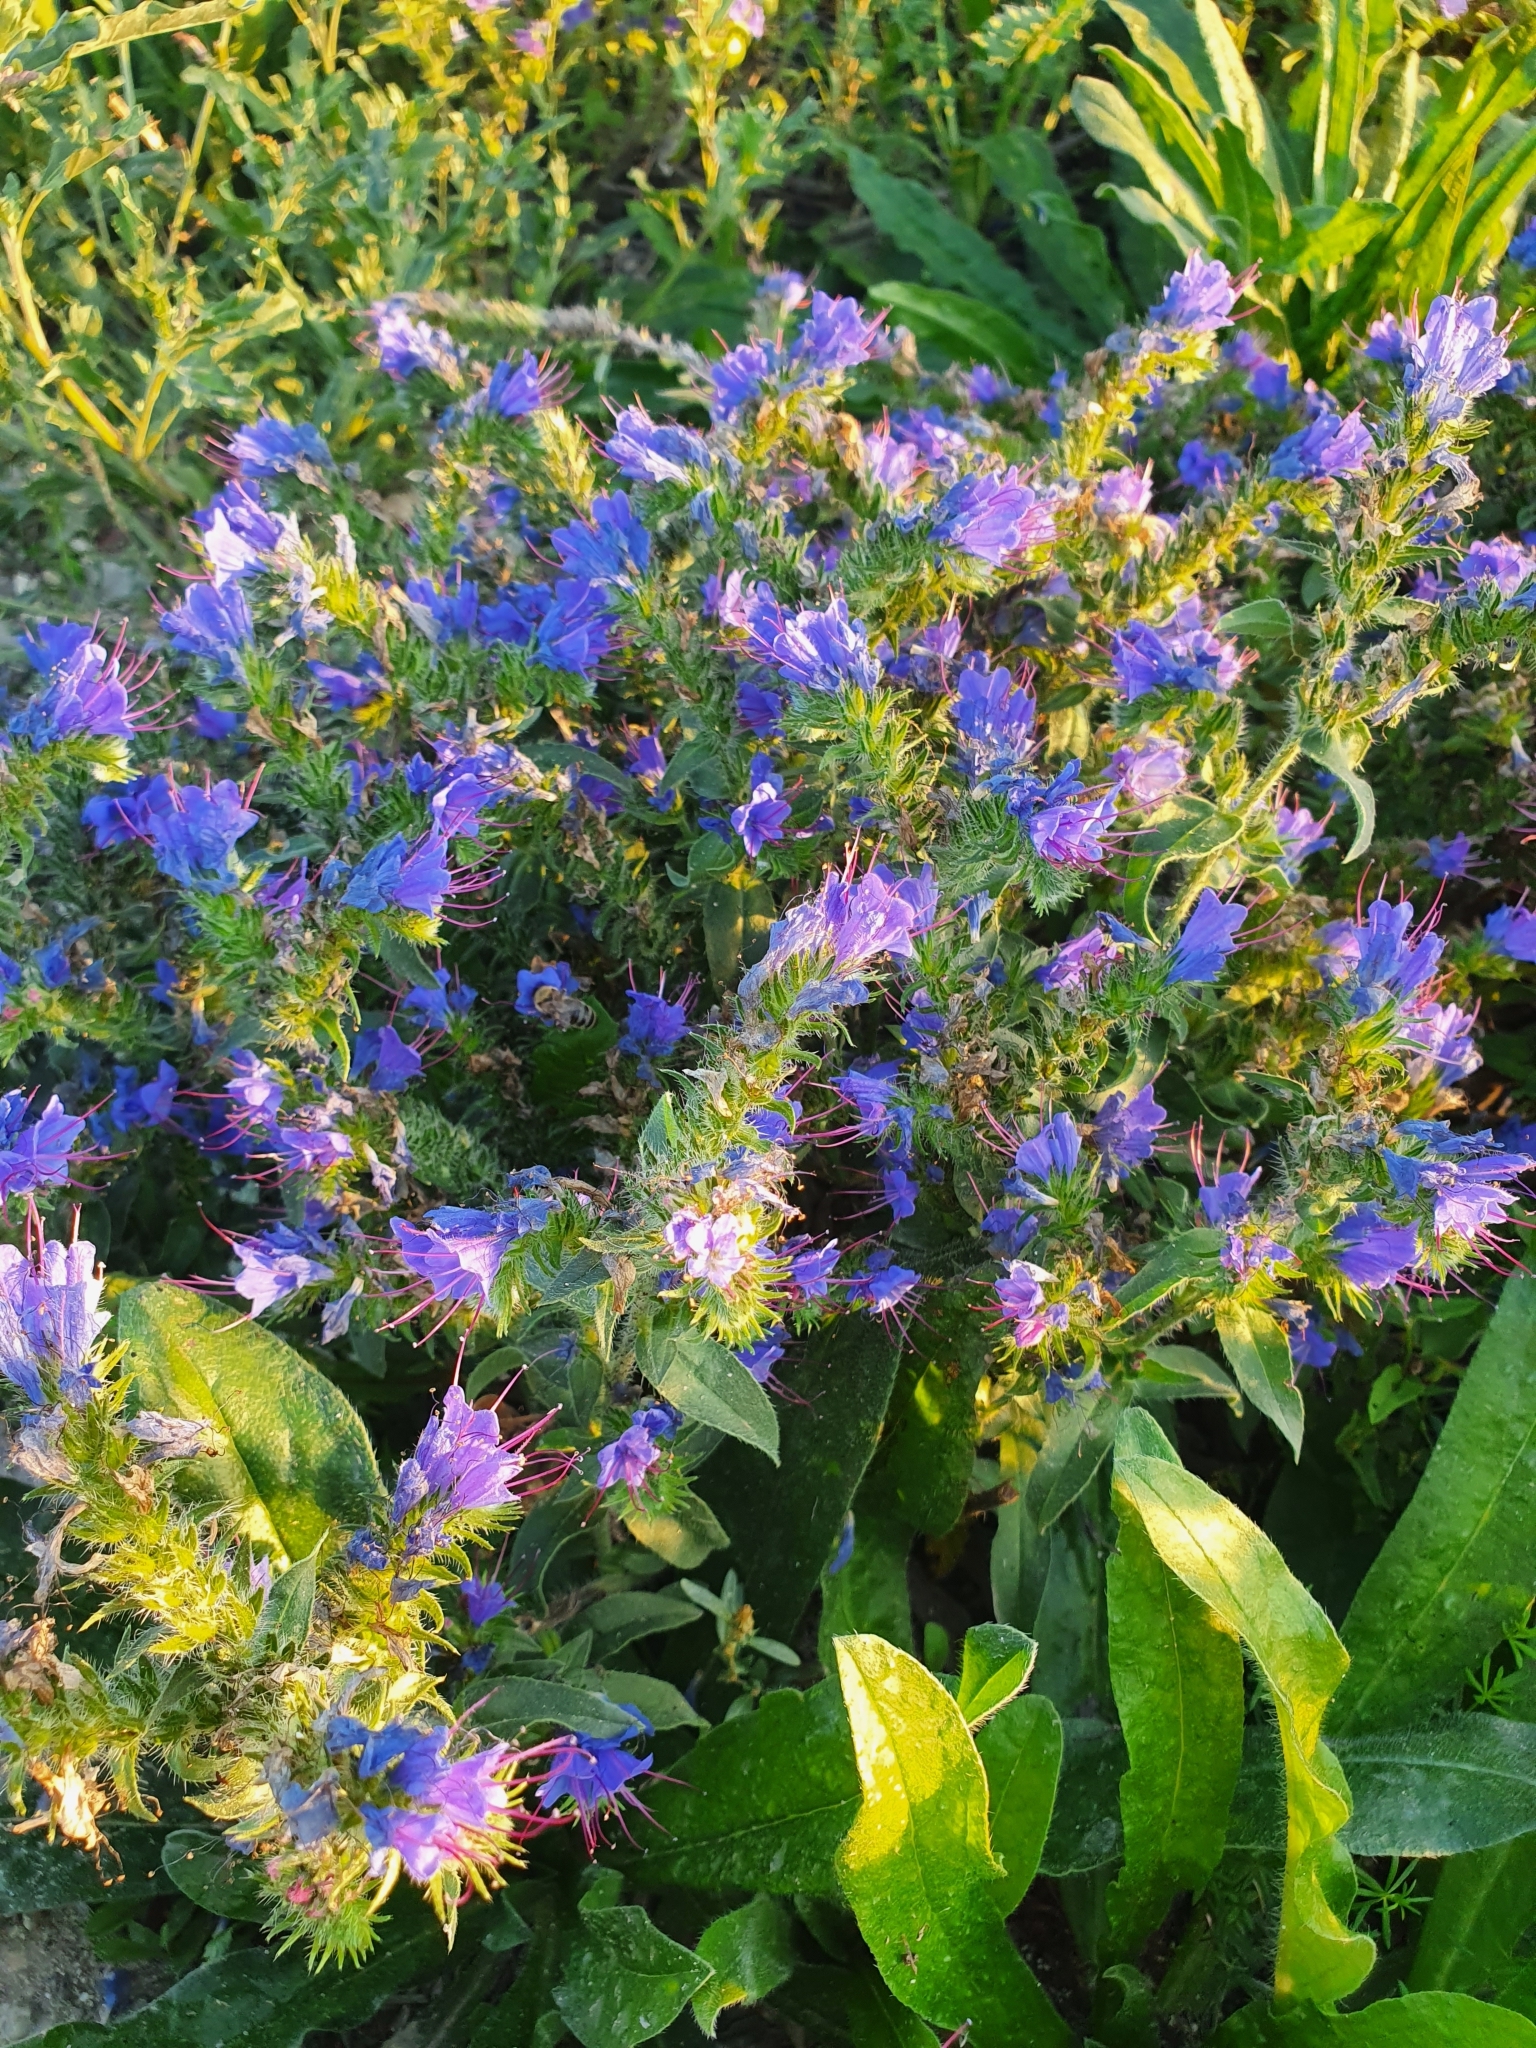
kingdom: Plantae
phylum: Tracheophyta
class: Magnoliopsida
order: Boraginales
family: Boraginaceae
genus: Echium
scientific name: Echium vulgare
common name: Common viper's bugloss
